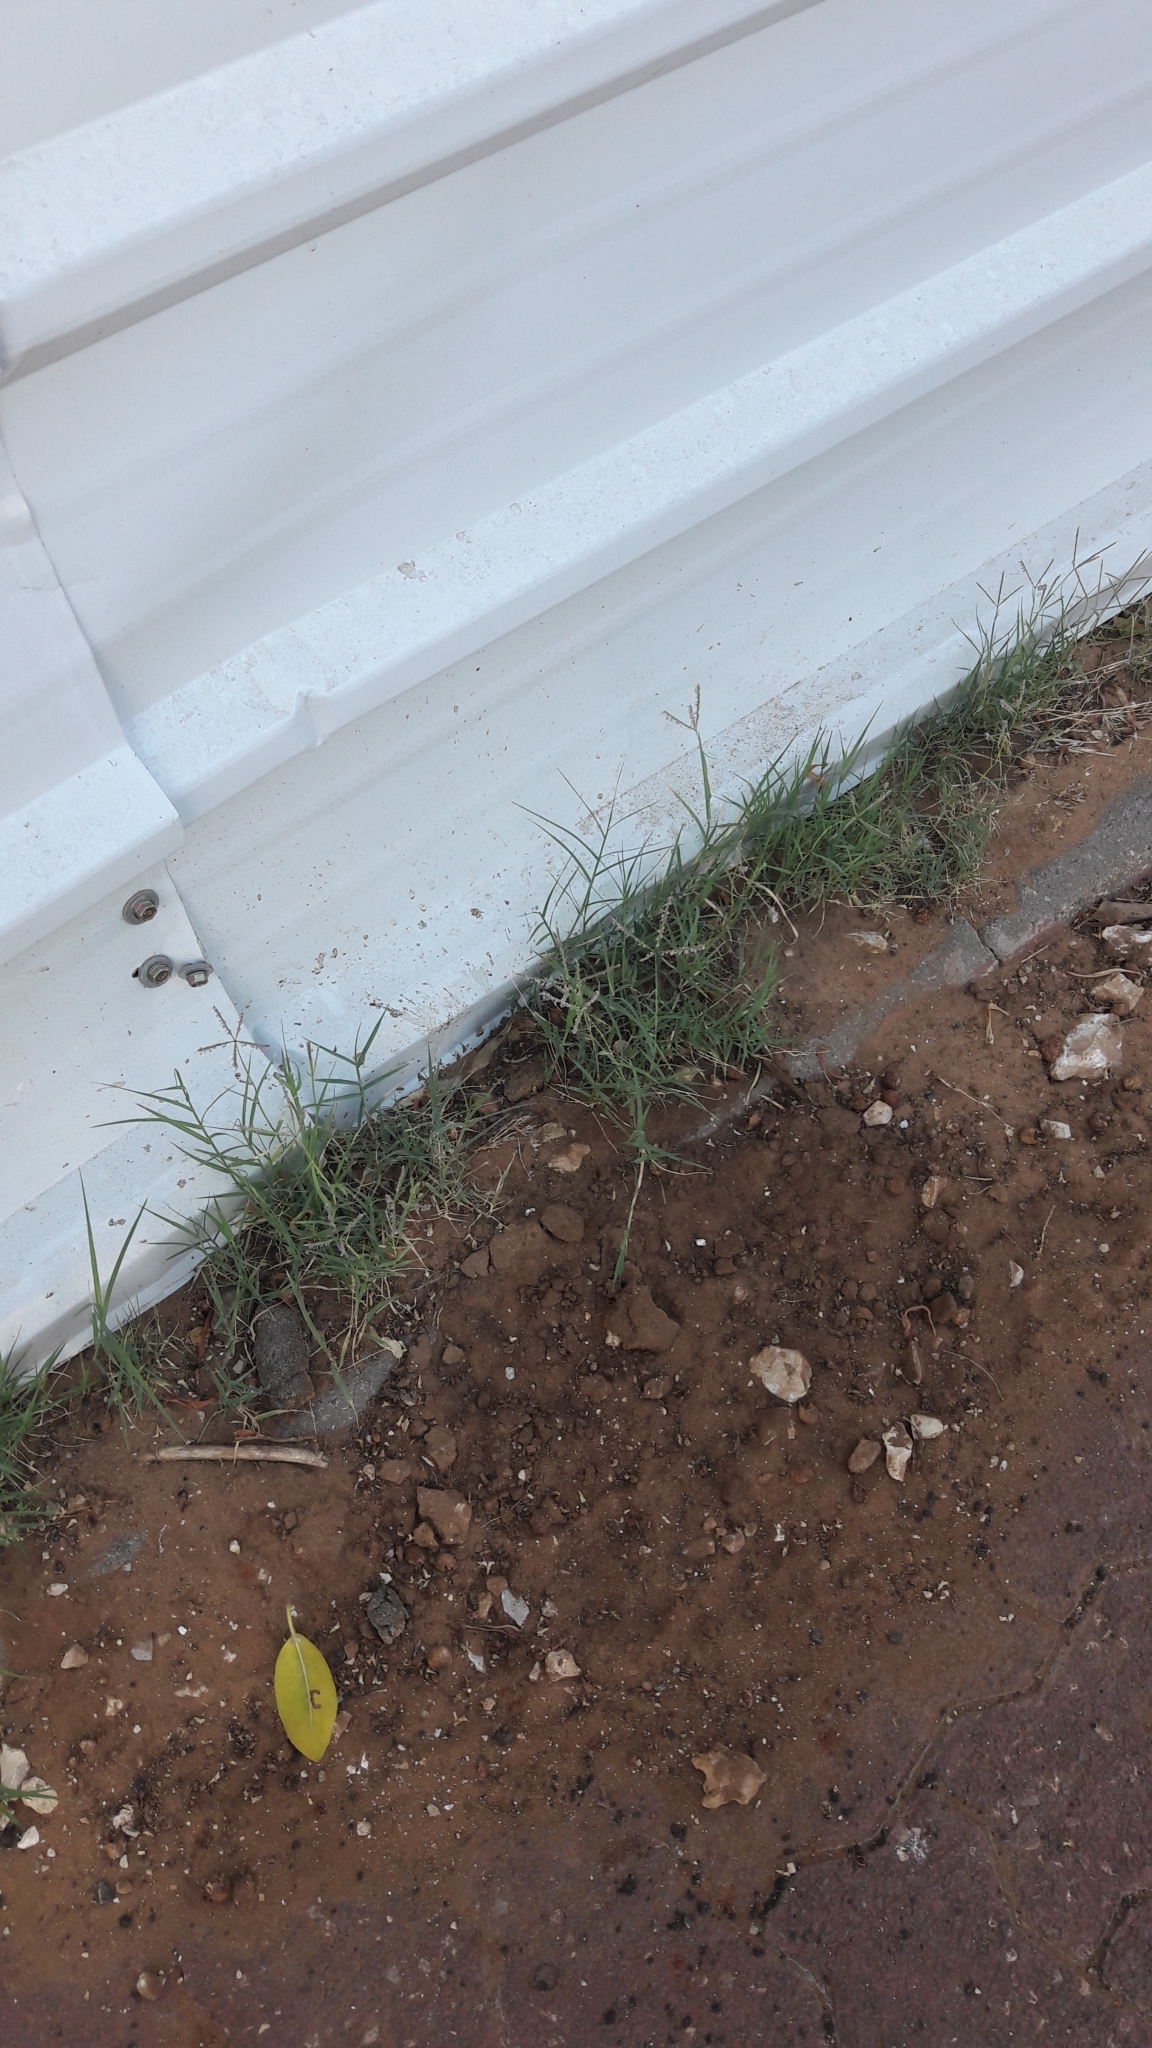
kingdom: Plantae
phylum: Tracheophyta
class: Liliopsida
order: Poales
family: Poaceae
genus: Cynodon
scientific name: Cynodon dactylon
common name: Bermuda grass
